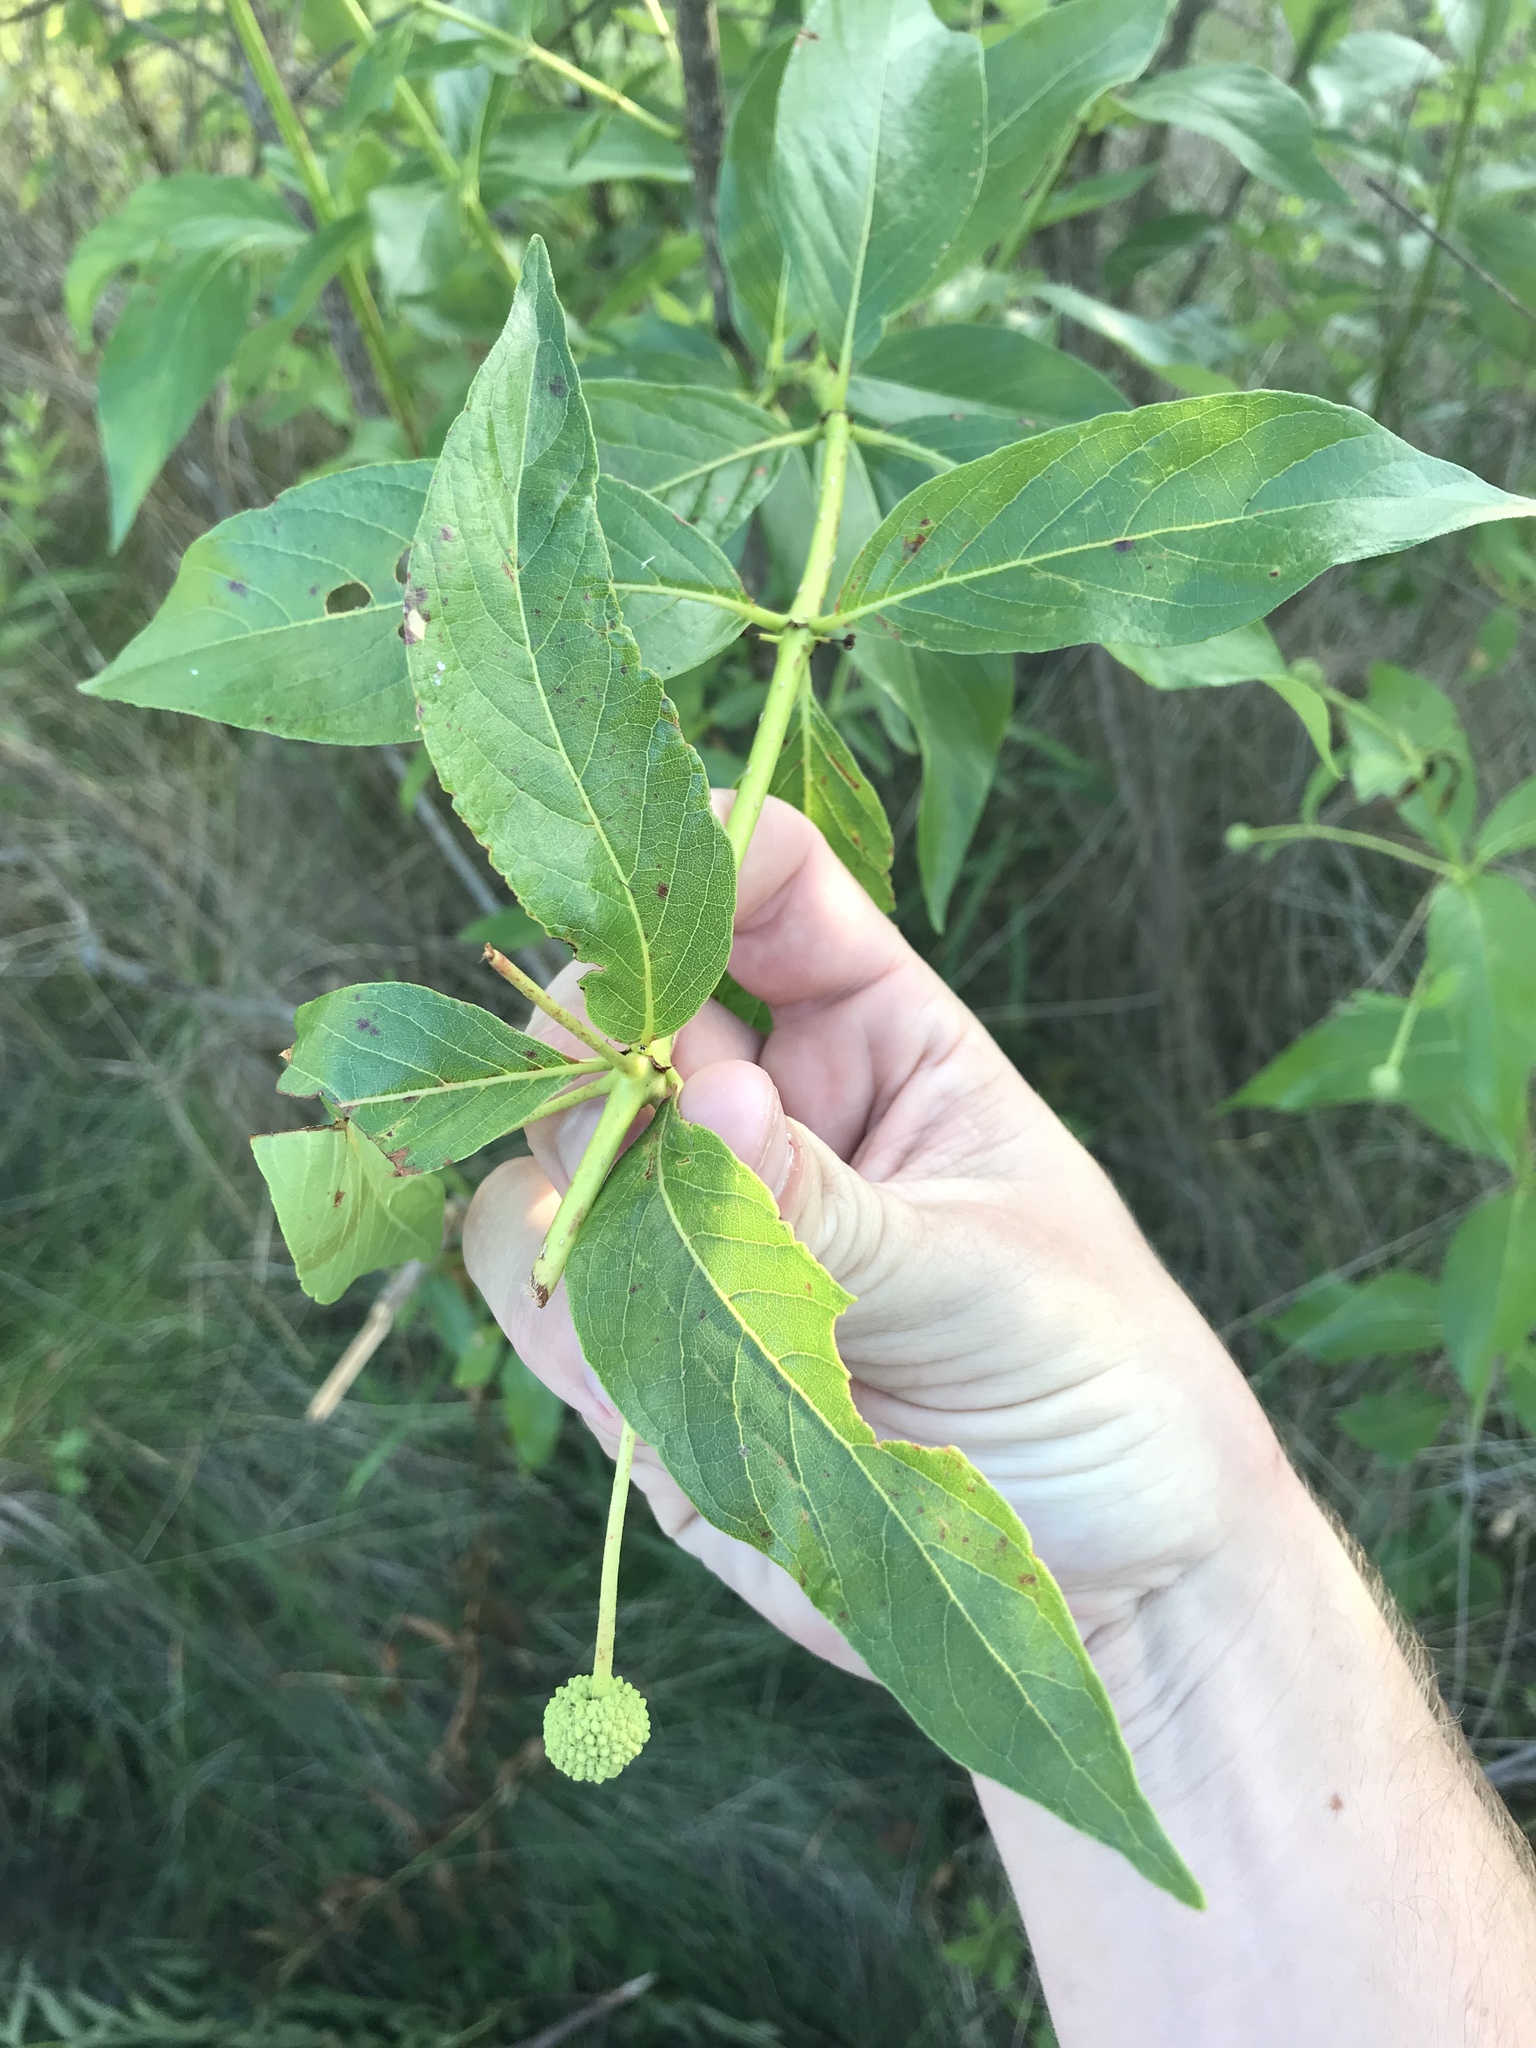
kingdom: Plantae
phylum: Tracheophyta
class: Magnoliopsida
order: Gentianales
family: Rubiaceae
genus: Cephalanthus
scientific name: Cephalanthus occidentalis
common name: Button-willow
